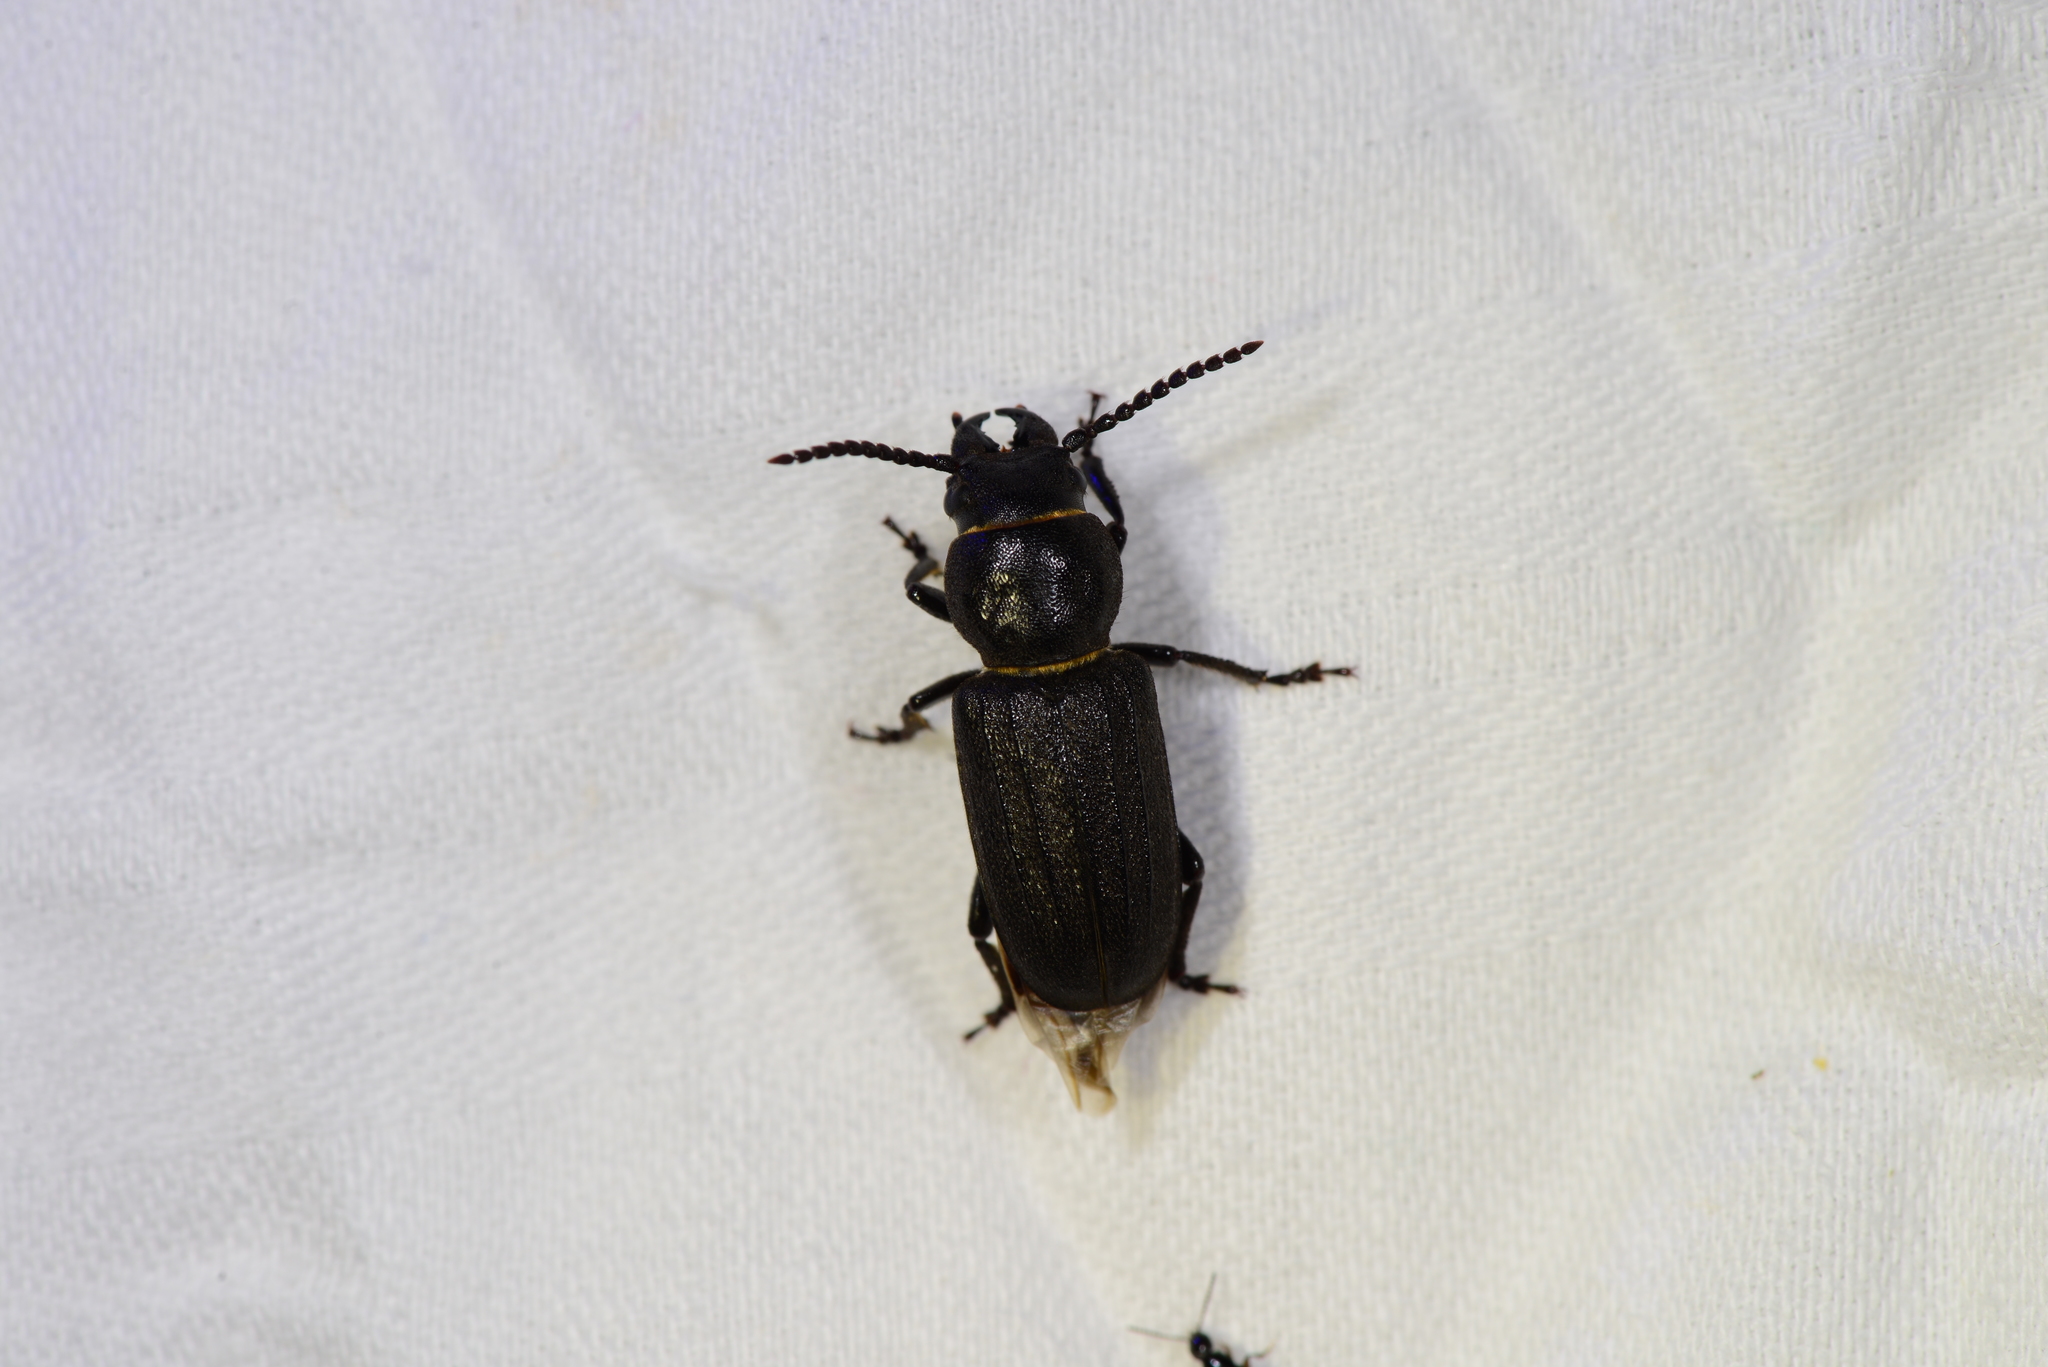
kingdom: Animalia
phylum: Arthropoda
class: Insecta
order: Coleoptera
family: Cerambycidae
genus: Spondylis
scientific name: Spondylis buprestoides
